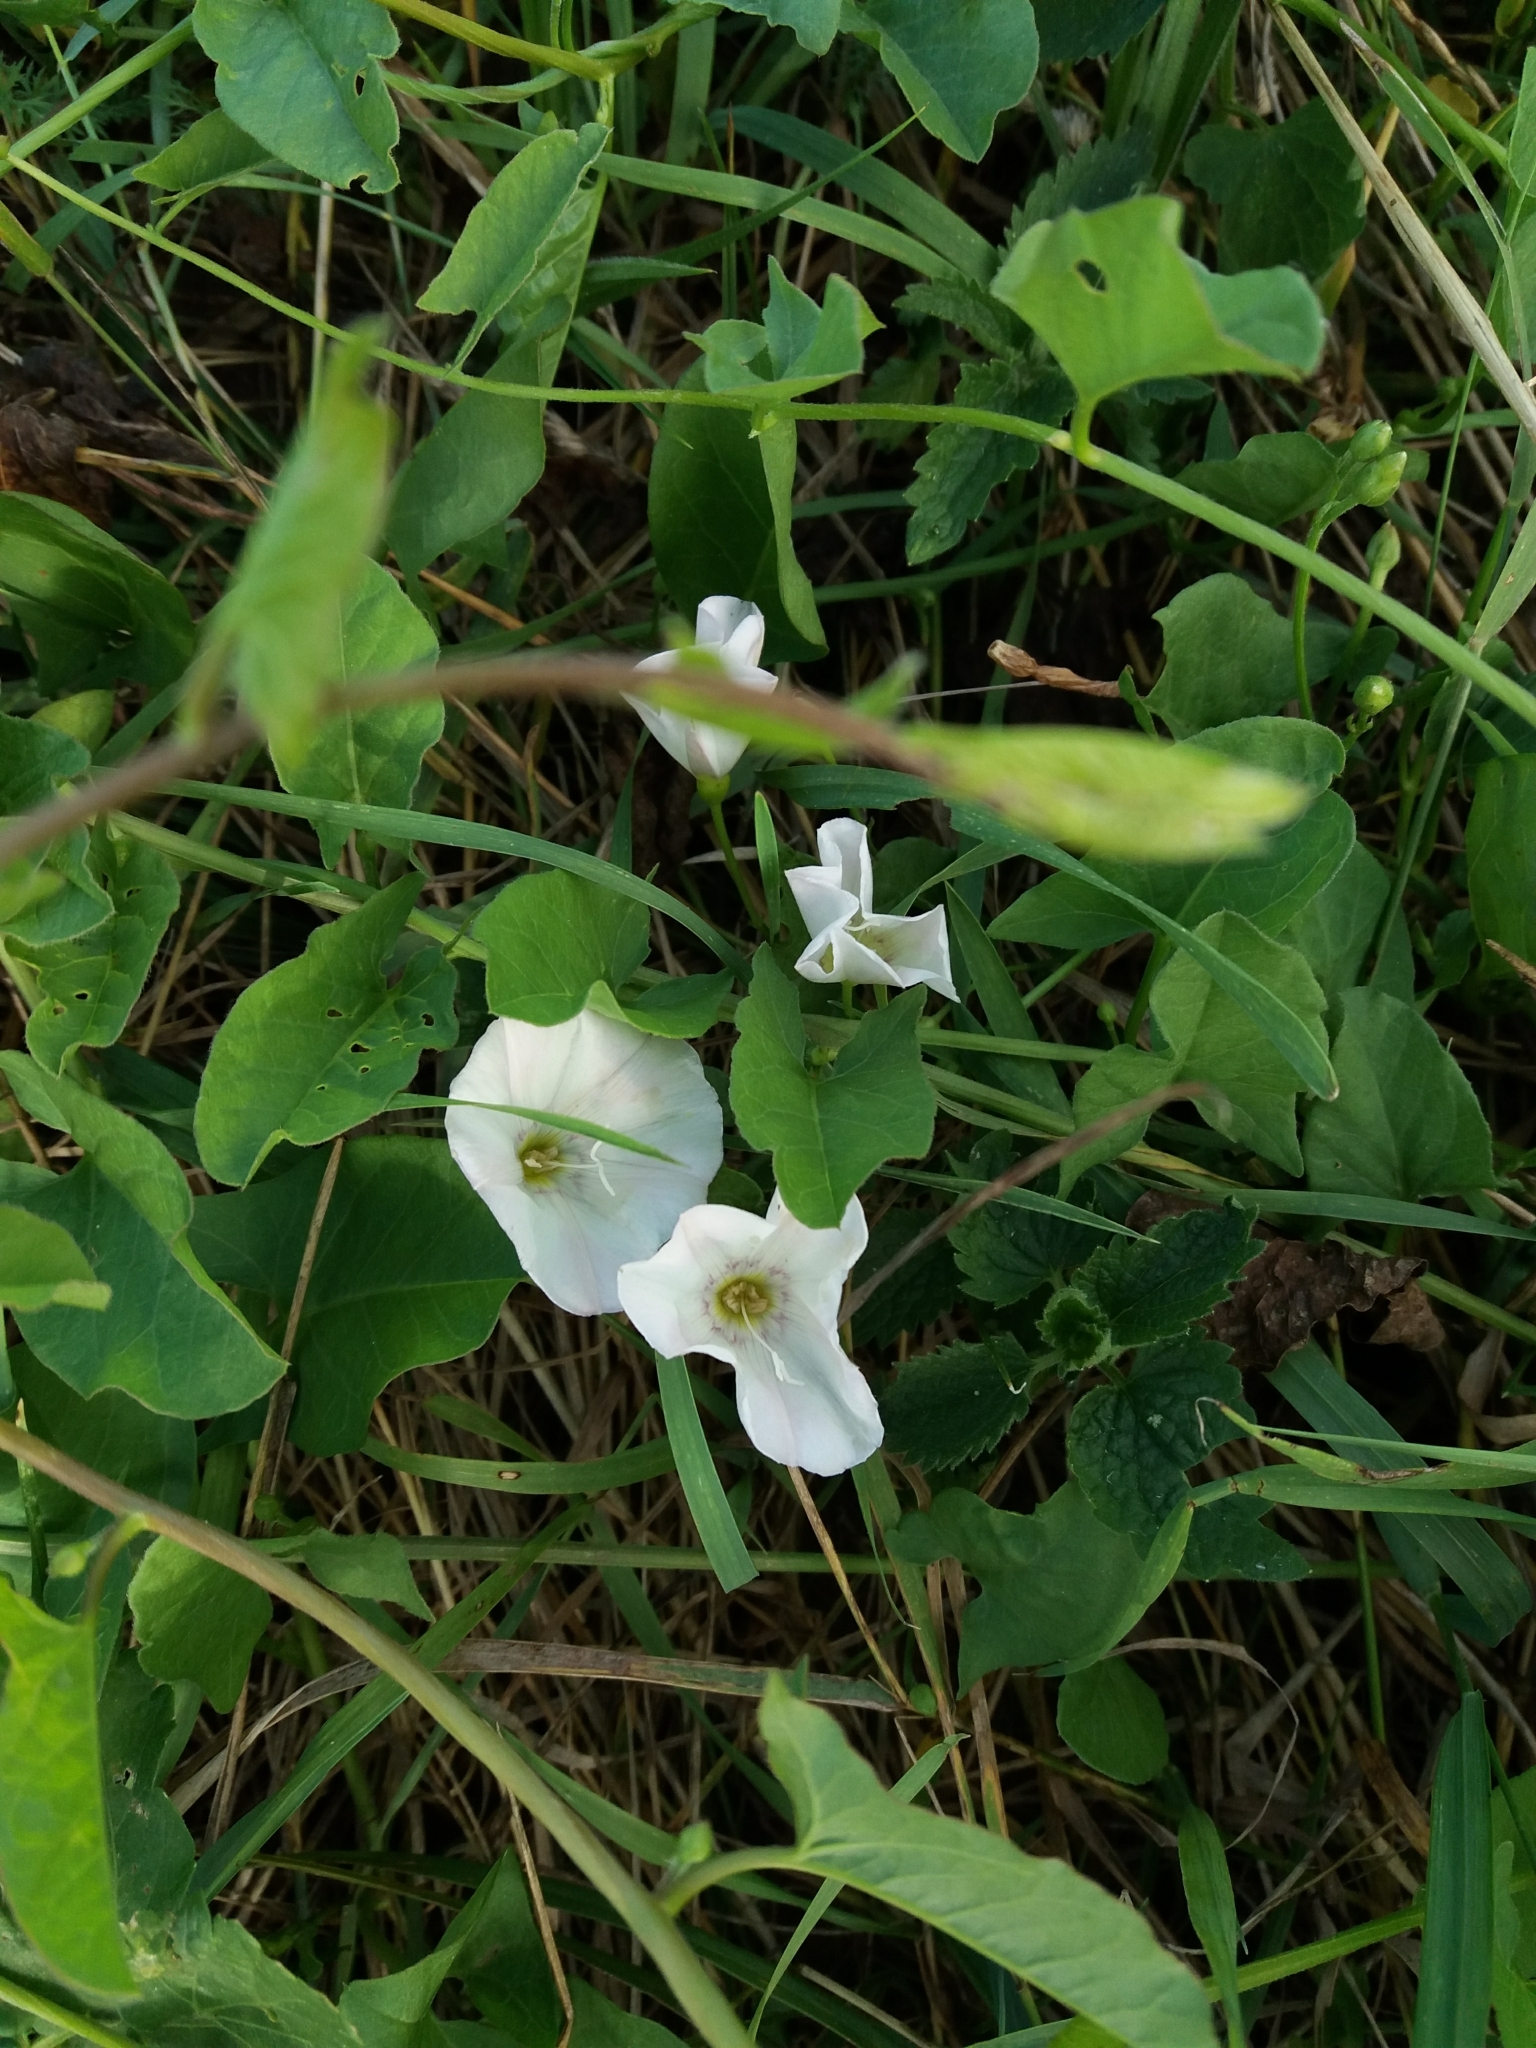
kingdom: Plantae
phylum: Tracheophyta
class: Magnoliopsida
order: Solanales
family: Convolvulaceae
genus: Convolvulus
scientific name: Convolvulus arvensis
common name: Field bindweed
